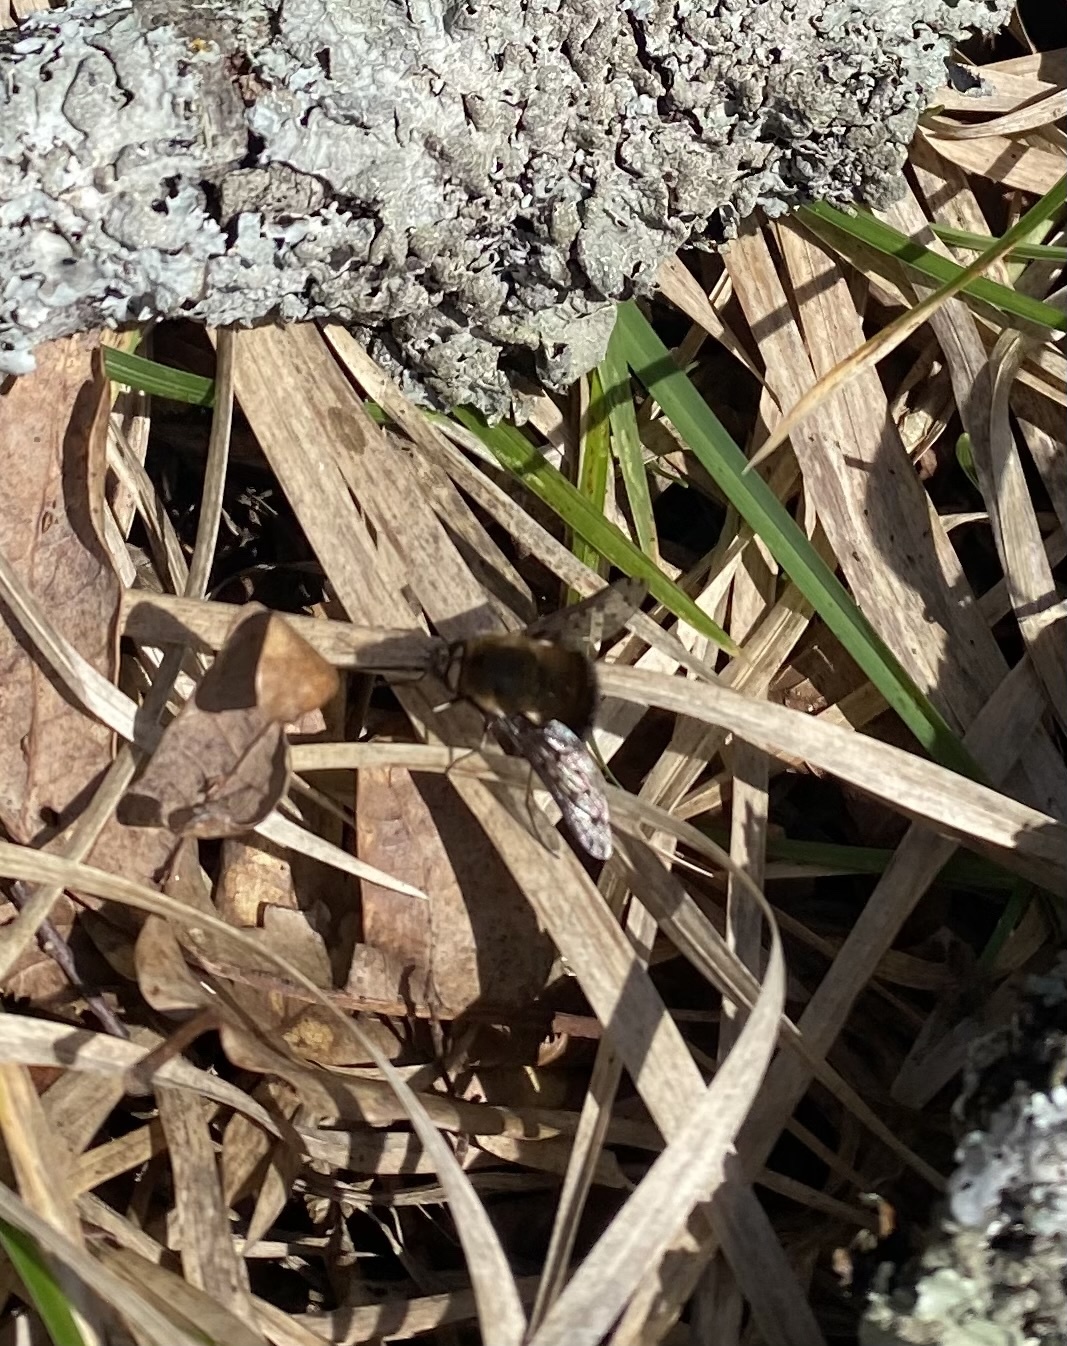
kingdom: Animalia
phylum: Arthropoda
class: Insecta
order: Diptera
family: Bombyliidae
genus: Bombylius
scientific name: Bombylius discolor
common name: Dotted bee-fly
